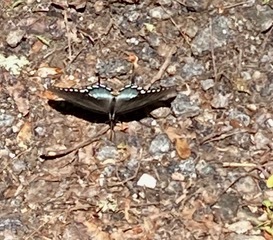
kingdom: Animalia
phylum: Arthropoda
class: Insecta
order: Lepidoptera
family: Papilionidae
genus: Papilio
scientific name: Papilio troilus
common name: Spicebush swallowtail
